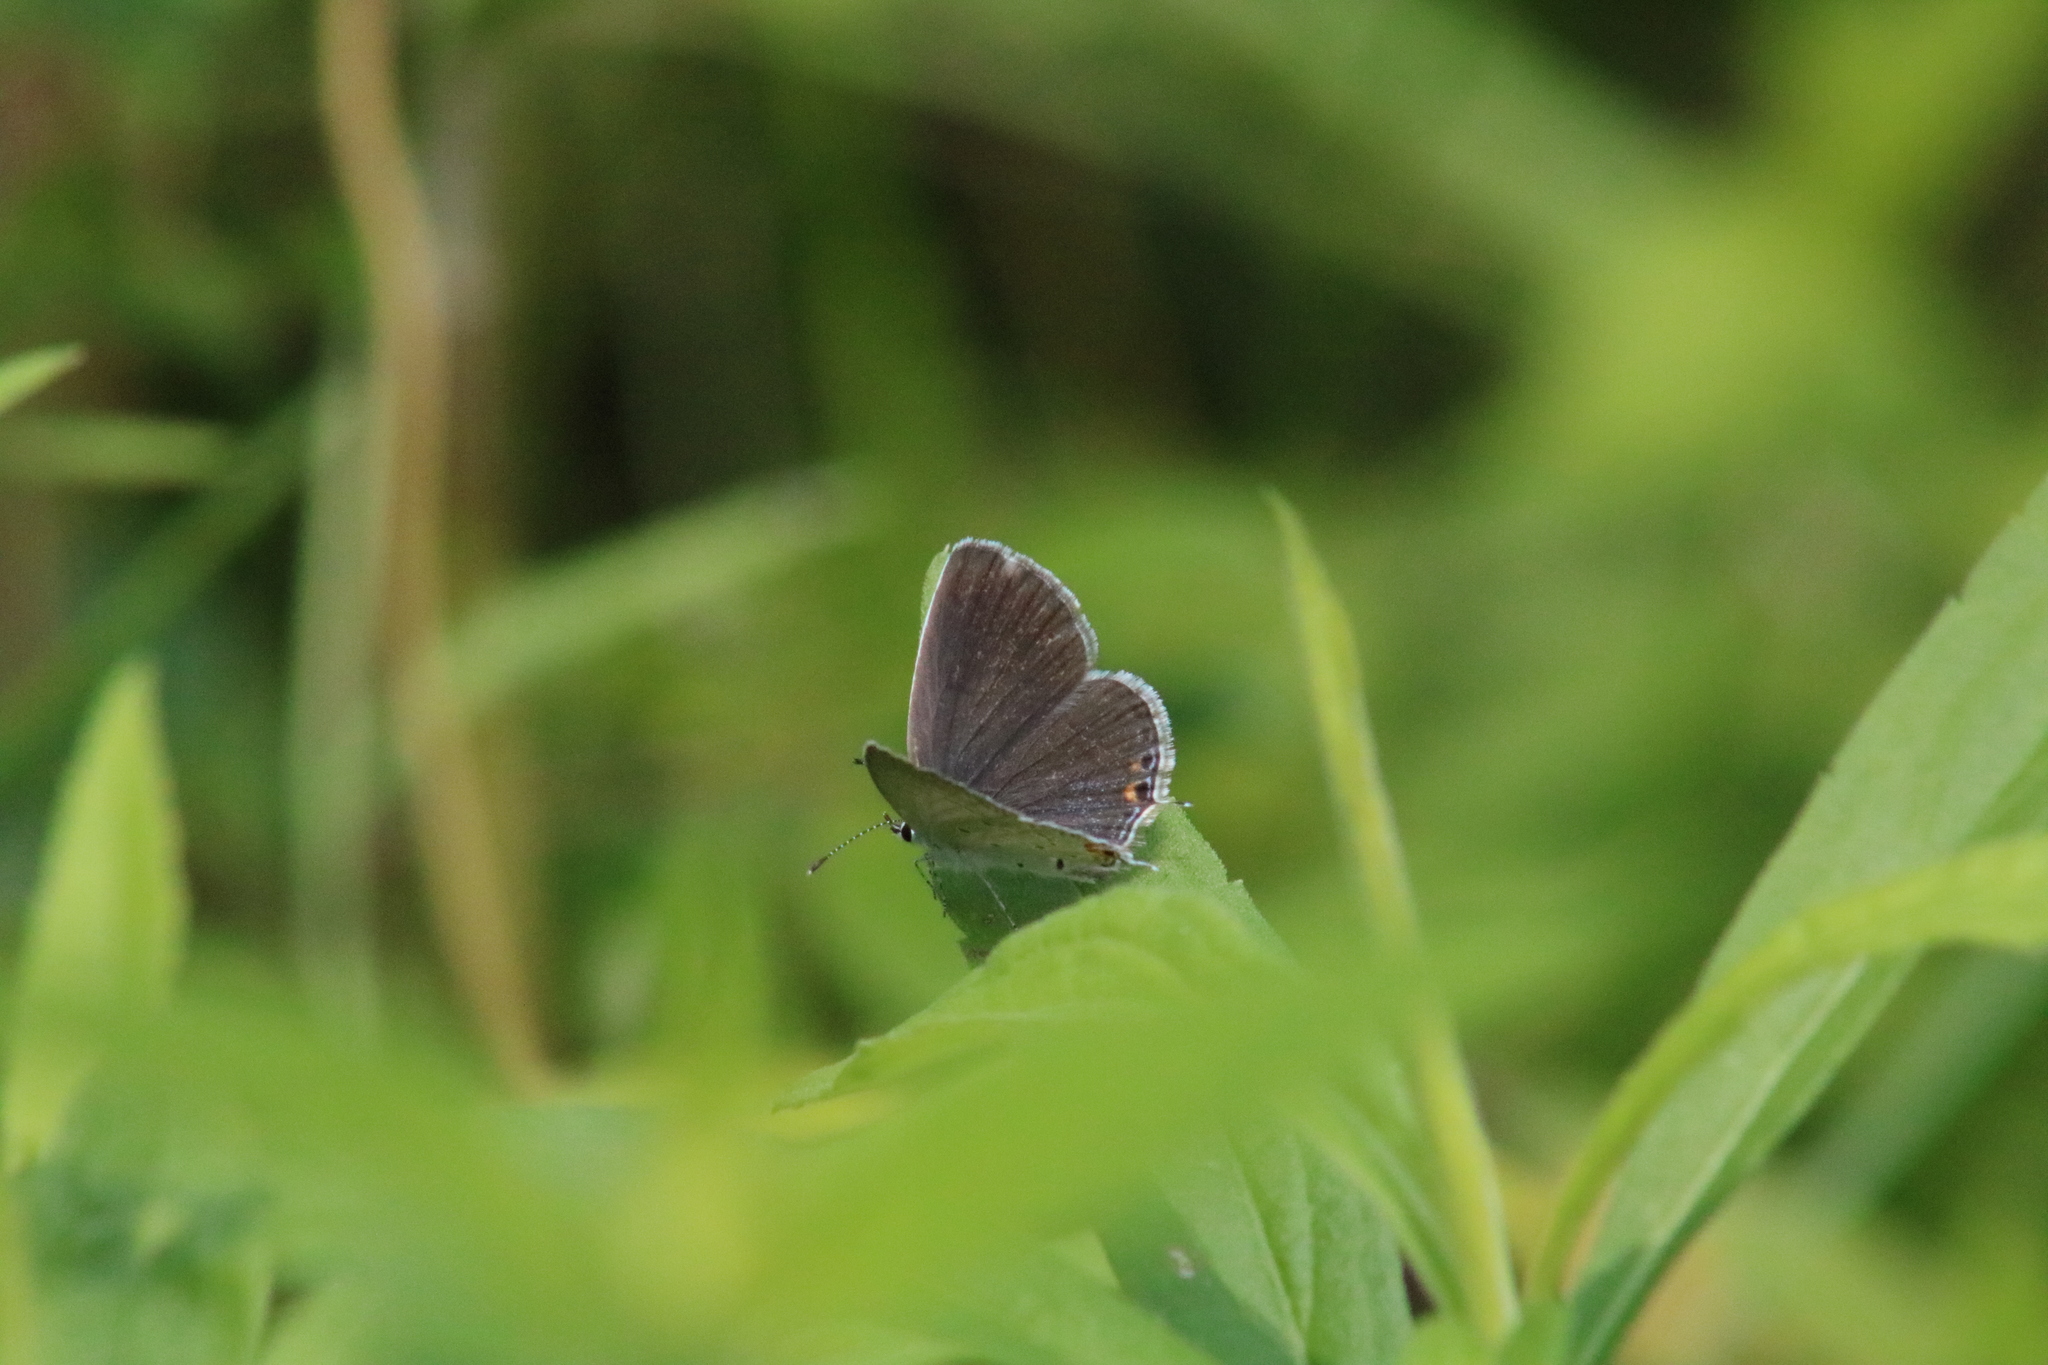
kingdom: Animalia
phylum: Arthropoda
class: Insecta
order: Lepidoptera
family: Lycaenidae
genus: Elkalyce
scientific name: Elkalyce comyntas
